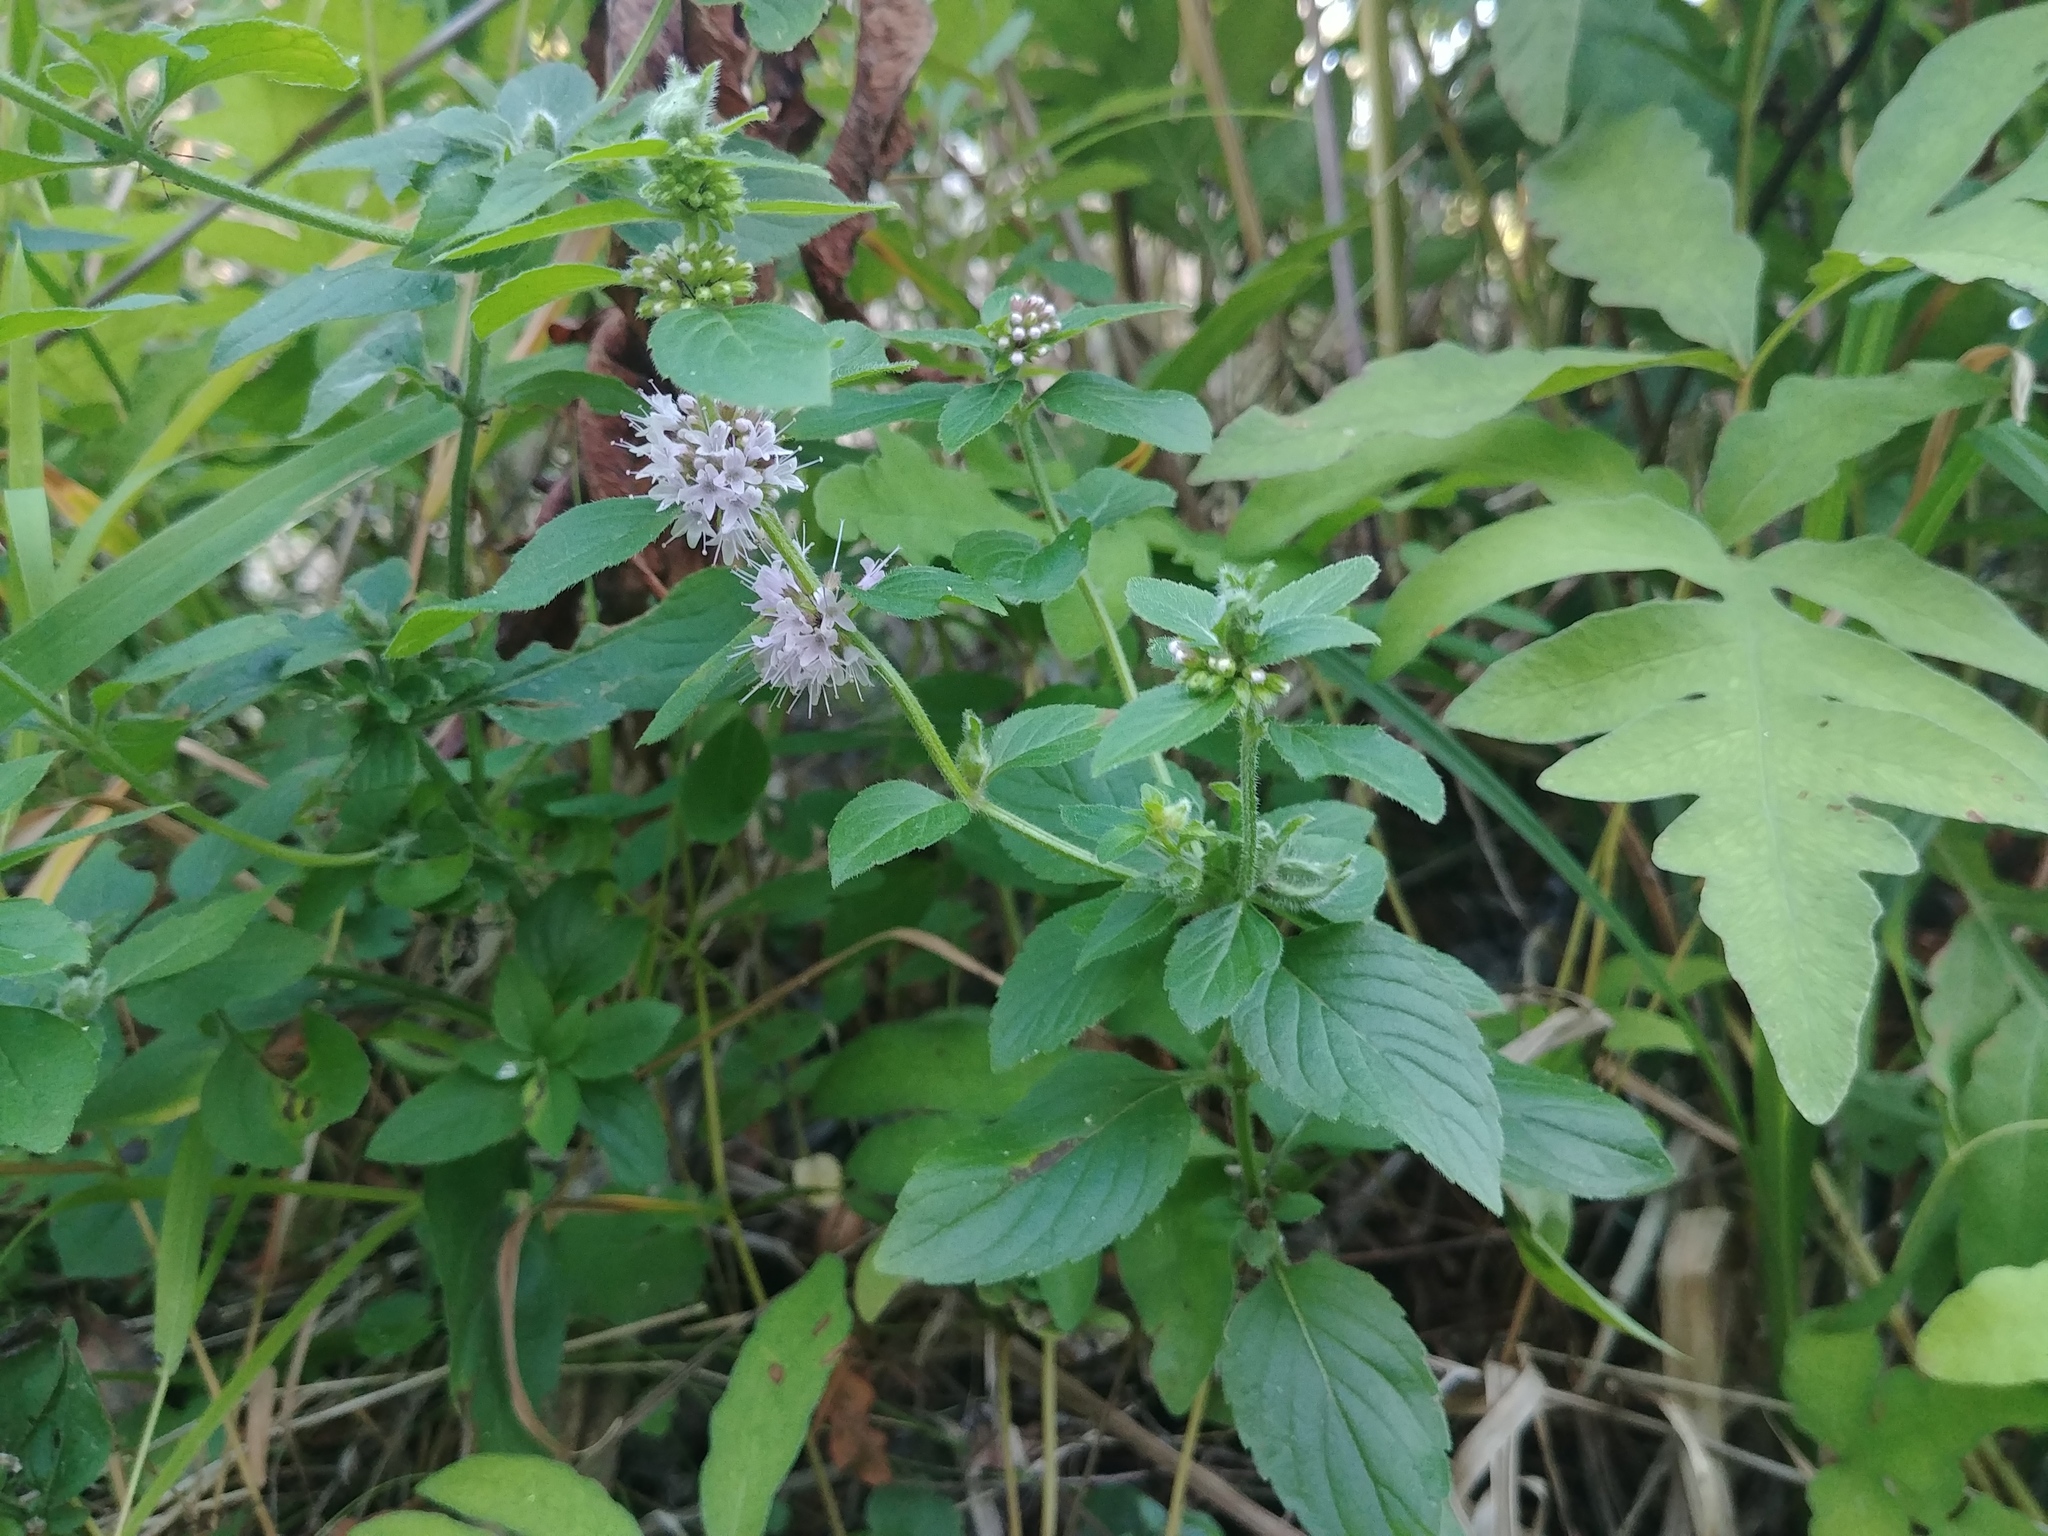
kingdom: Plantae
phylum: Tracheophyta
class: Magnoliopsida
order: Lamiales
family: Lamiaceae
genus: Mentha
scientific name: Mentha canadensis
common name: American corn mint
